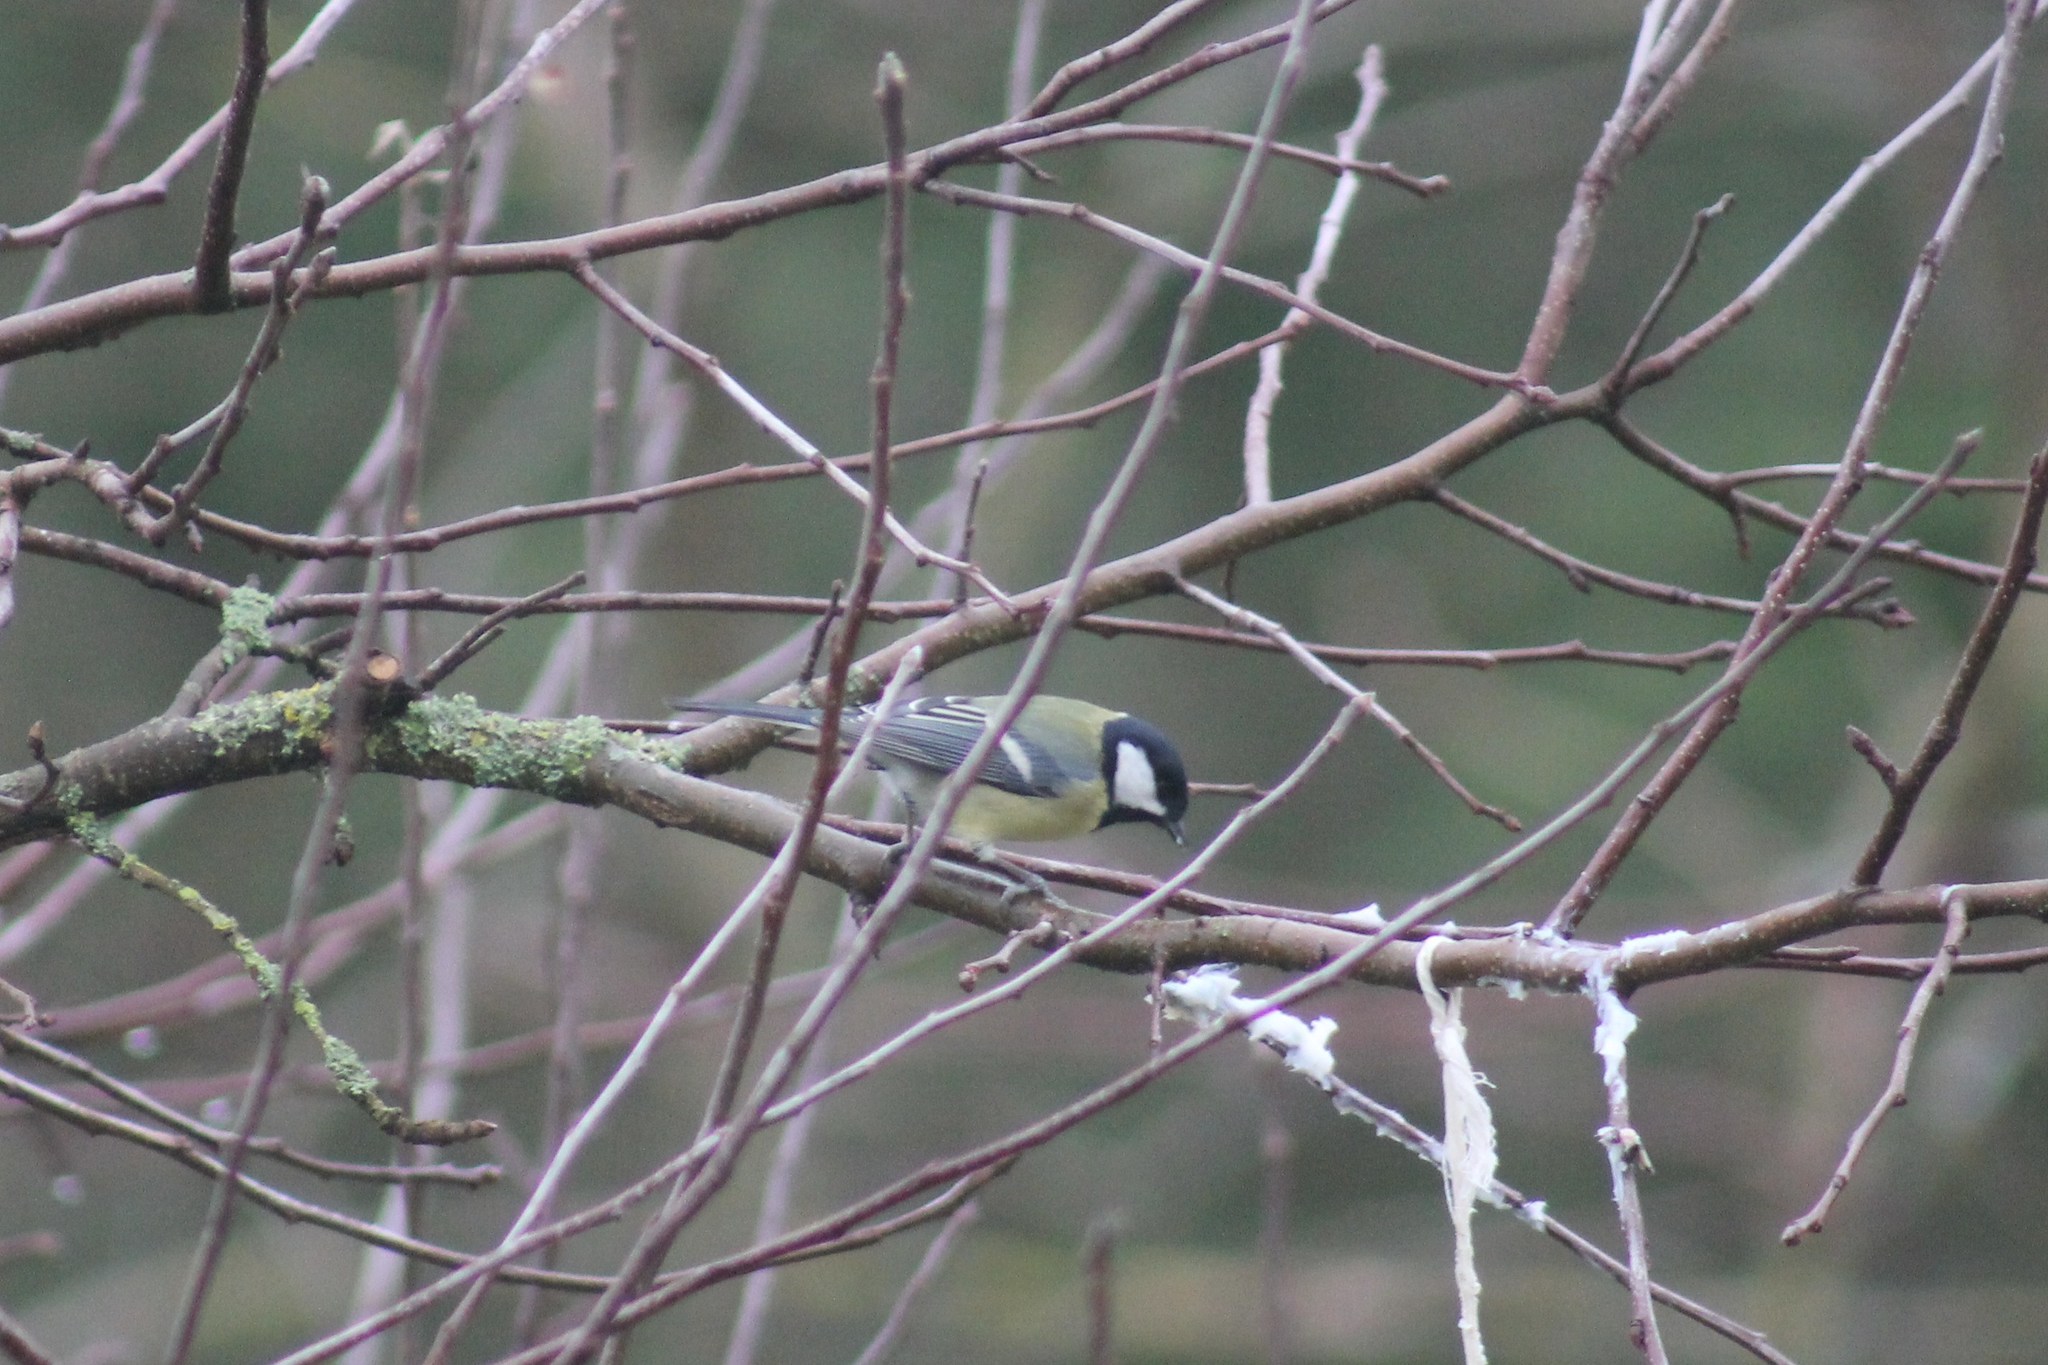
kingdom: Animalia
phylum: Chordata
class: Aves
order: Passeriformes
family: Paridae
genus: Parus
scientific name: Parus major
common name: Great tit
